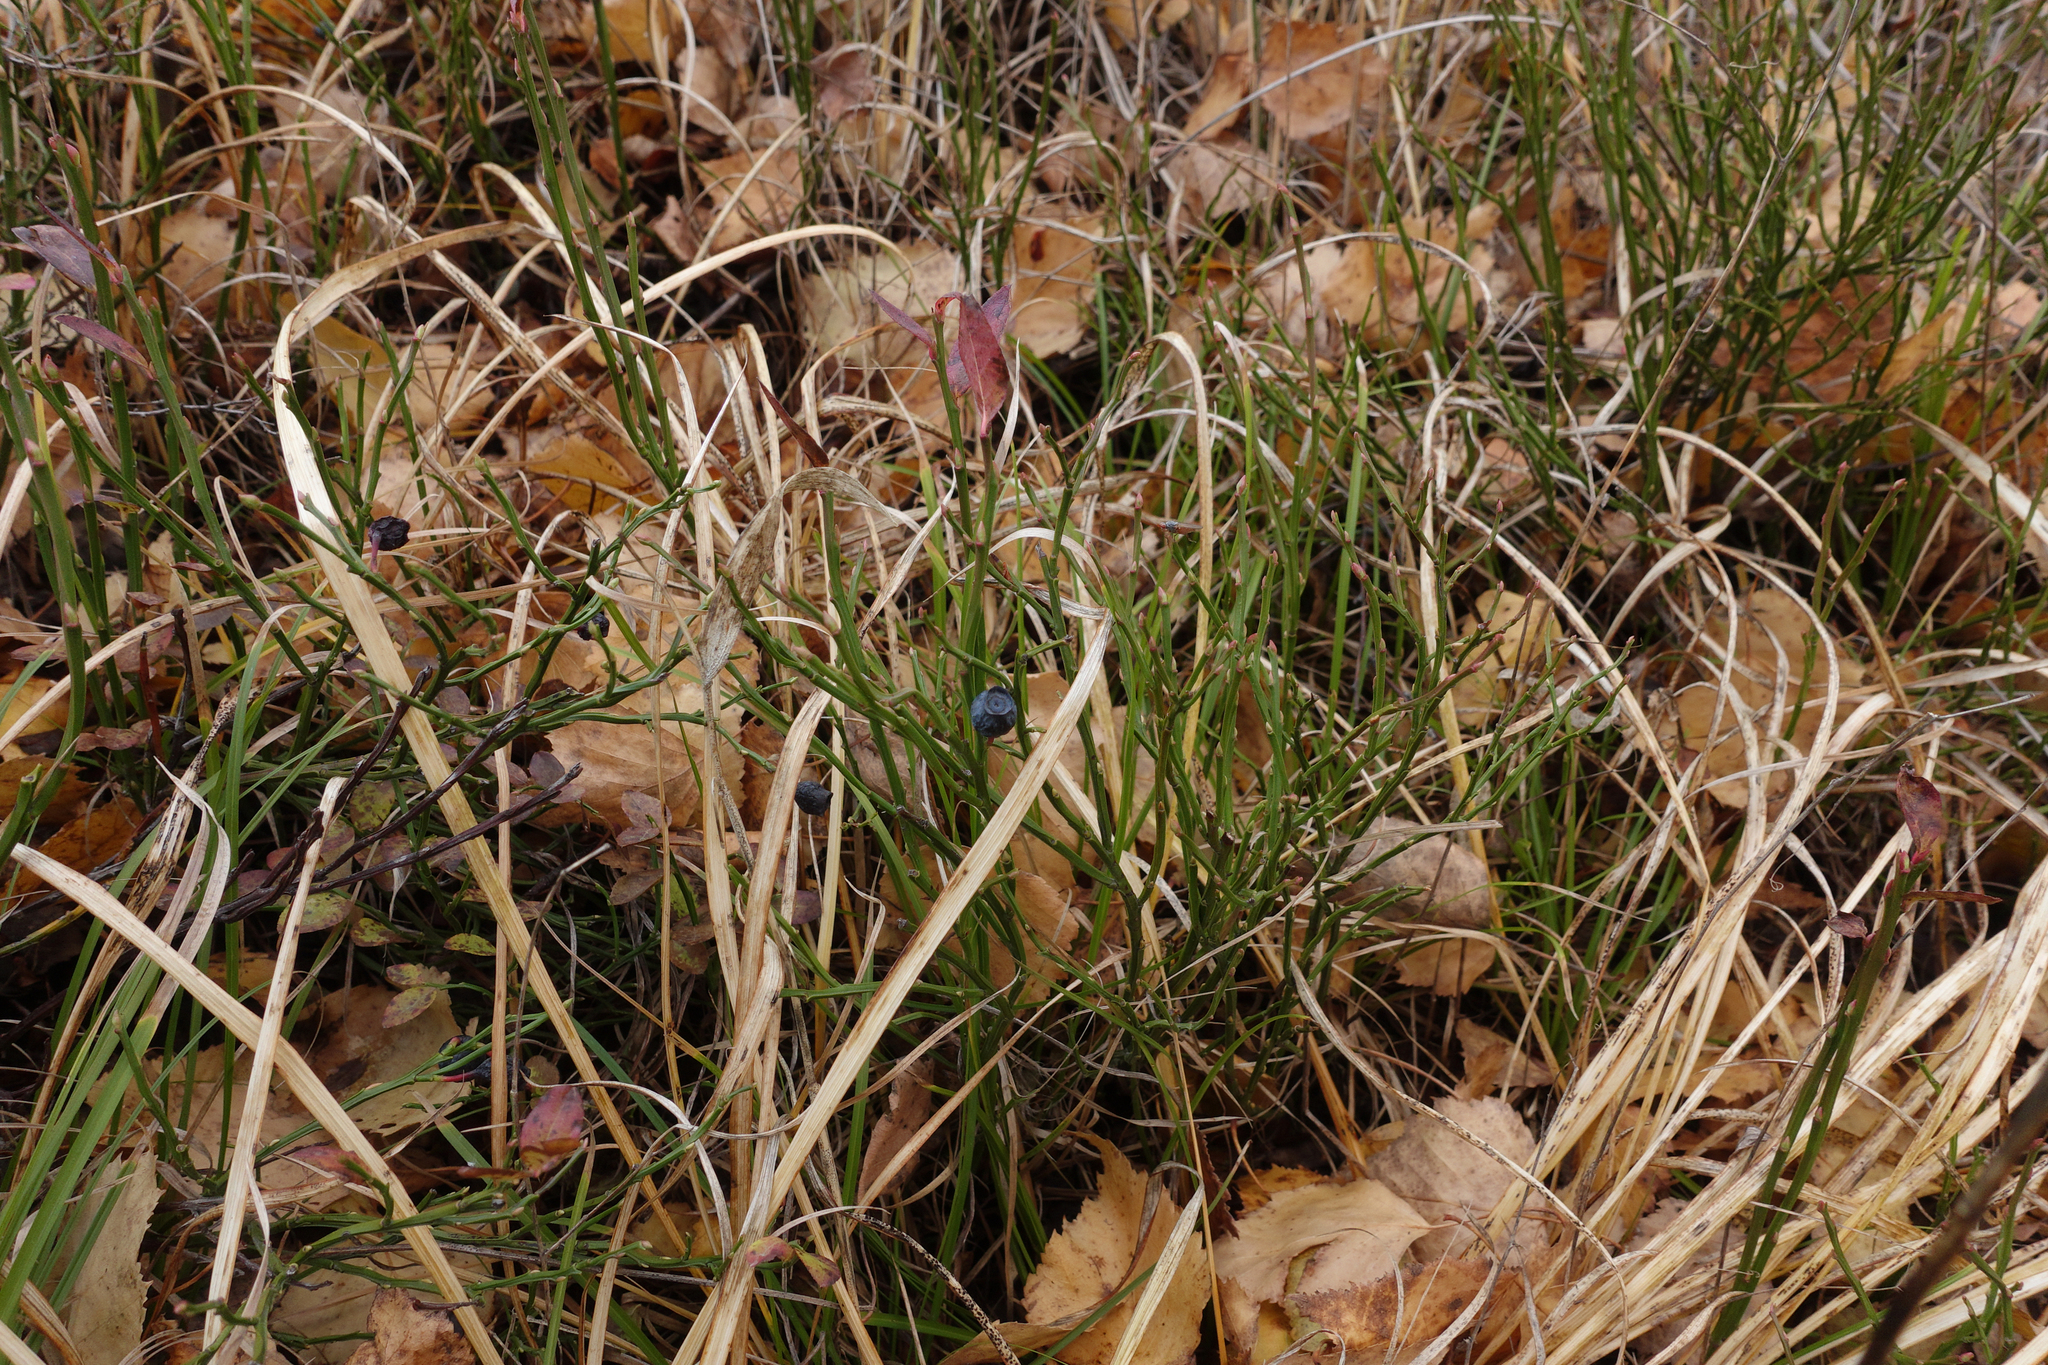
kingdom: Plantae
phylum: Tracheophyta
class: Magnoliopsida
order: Ericales
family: Ericaceae
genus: Vaccinium
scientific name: Vaccinium myrtillus
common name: Bilberry
